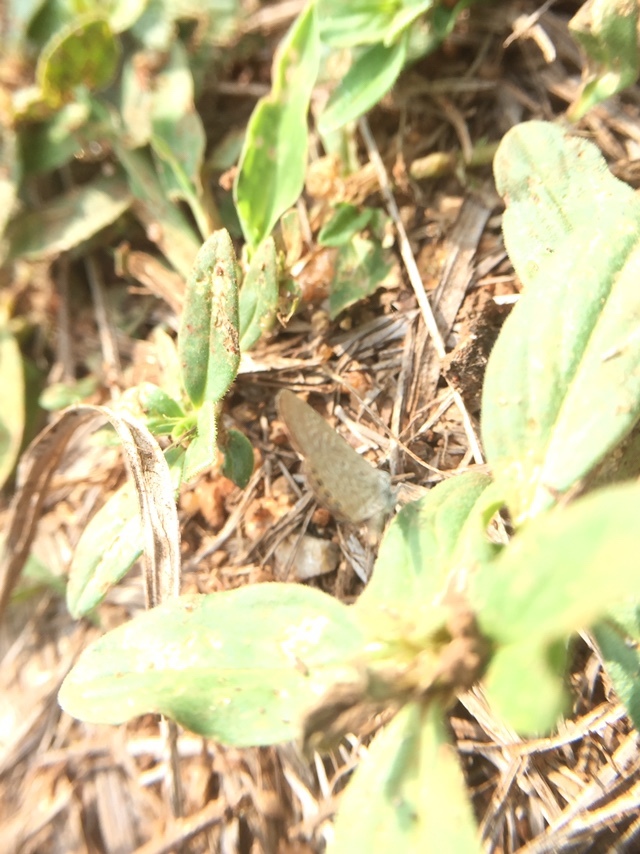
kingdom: Animalia
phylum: Arthropoda
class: Insecta
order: Lepidoptera
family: Lycaenidae
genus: Freyeria
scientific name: Freyeria putli
